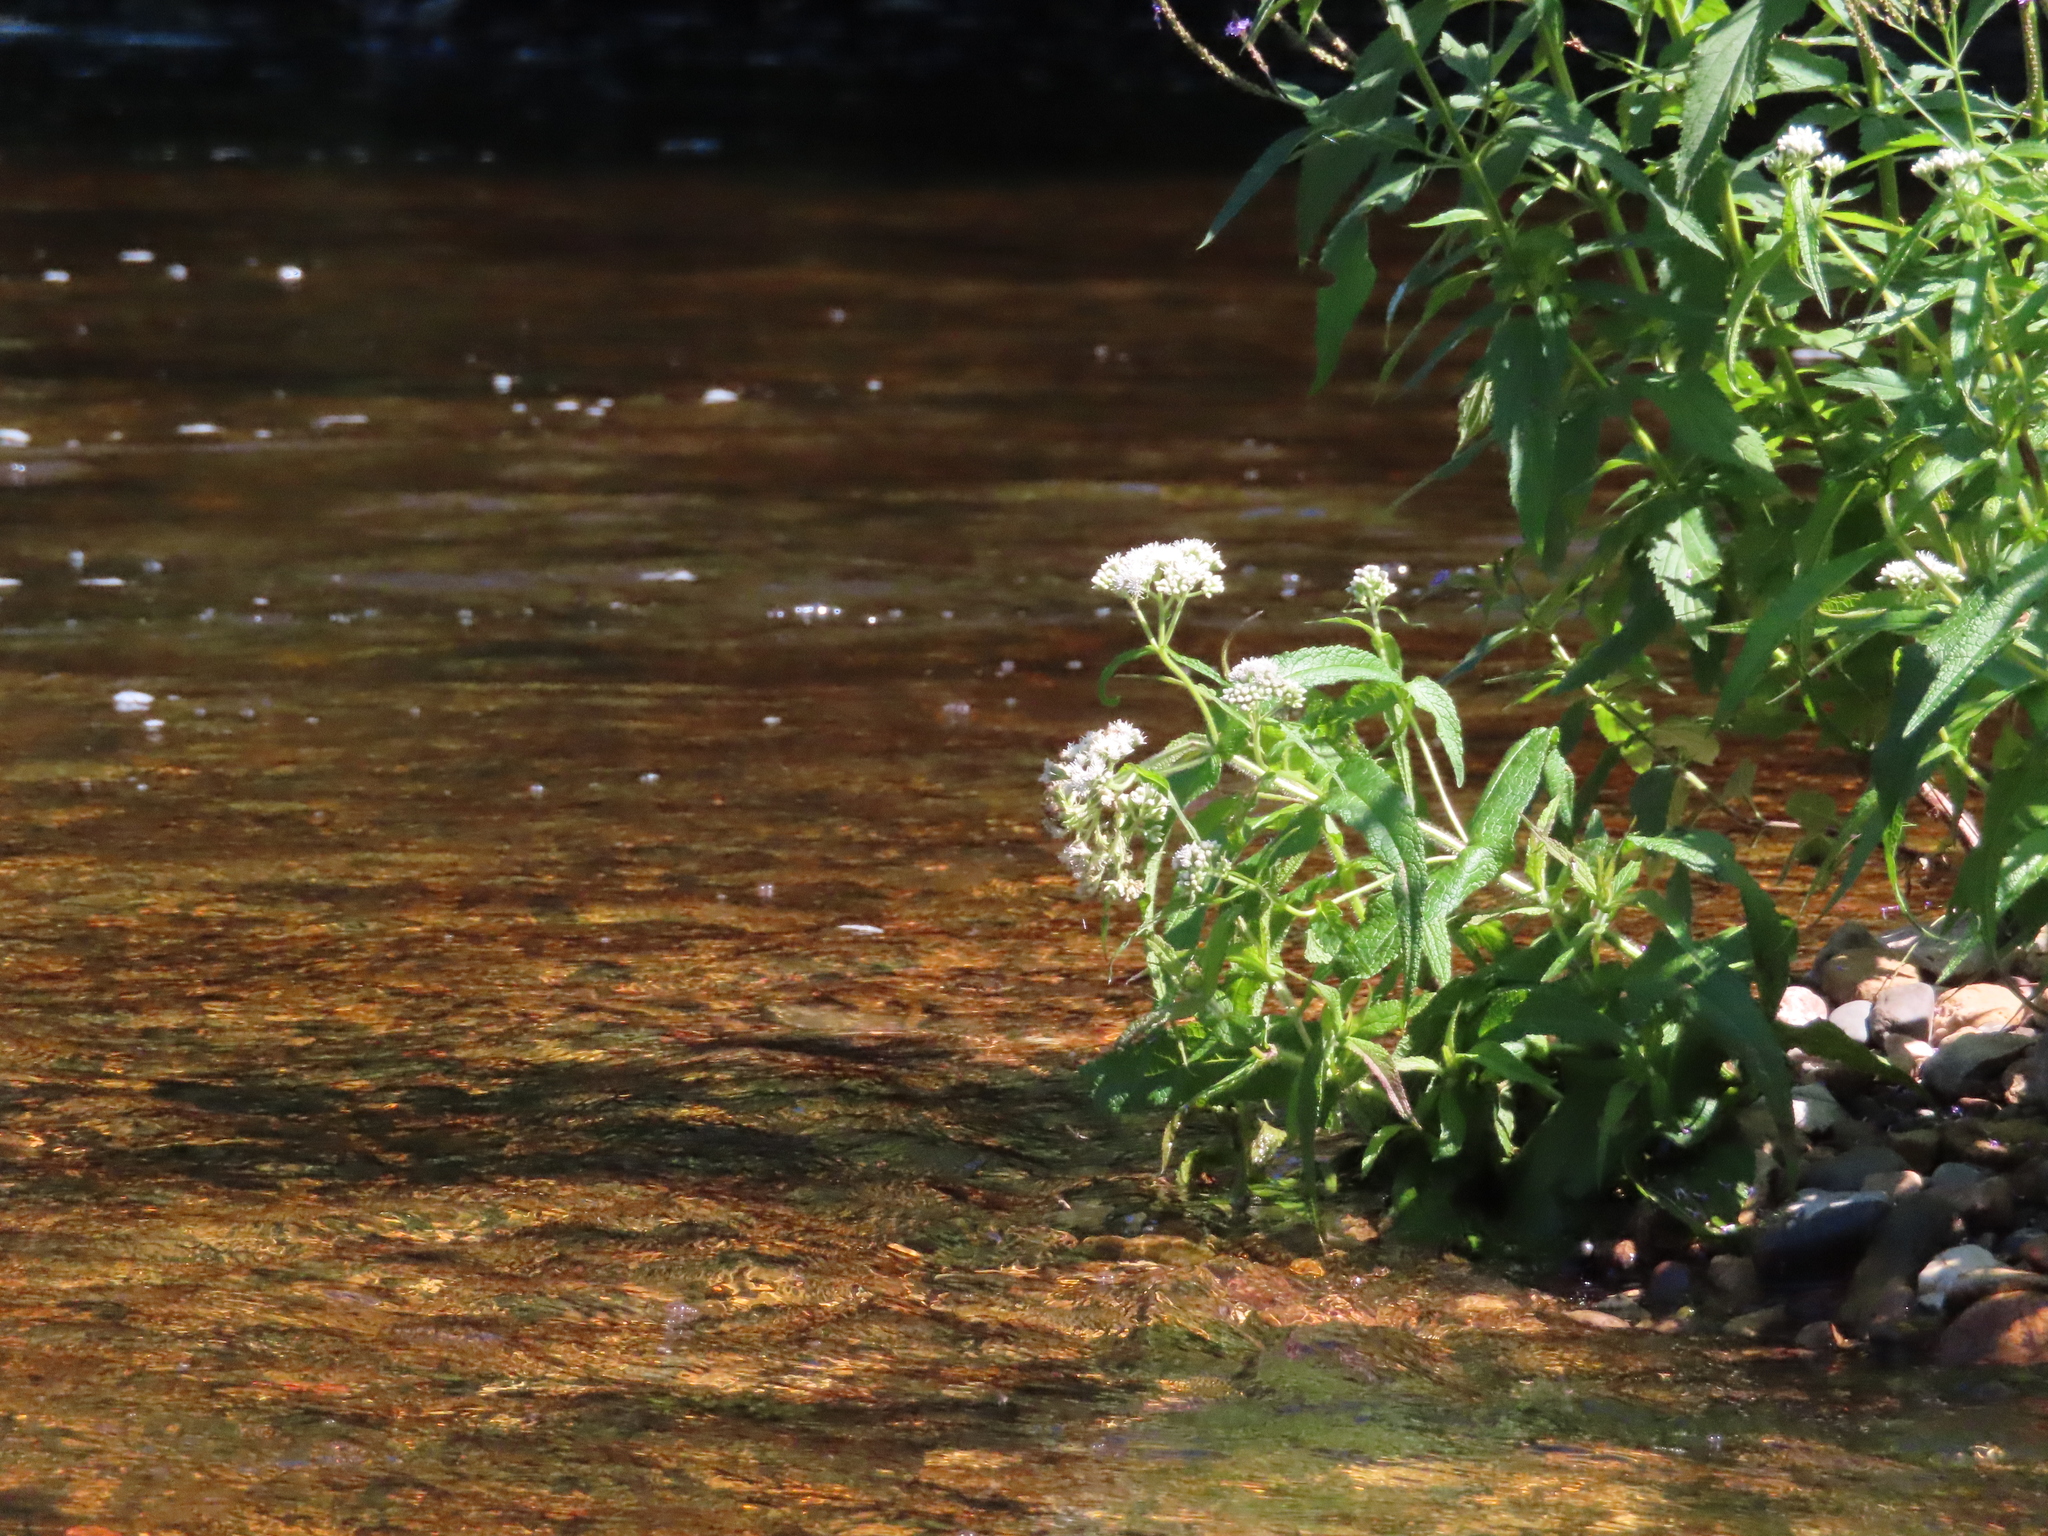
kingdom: Plantae
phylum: Tracheophyta
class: Magnoliopsida
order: Asterales
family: Asteraceae
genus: Eupatorium
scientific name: Eupatorium perfoliatum
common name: Boneset
